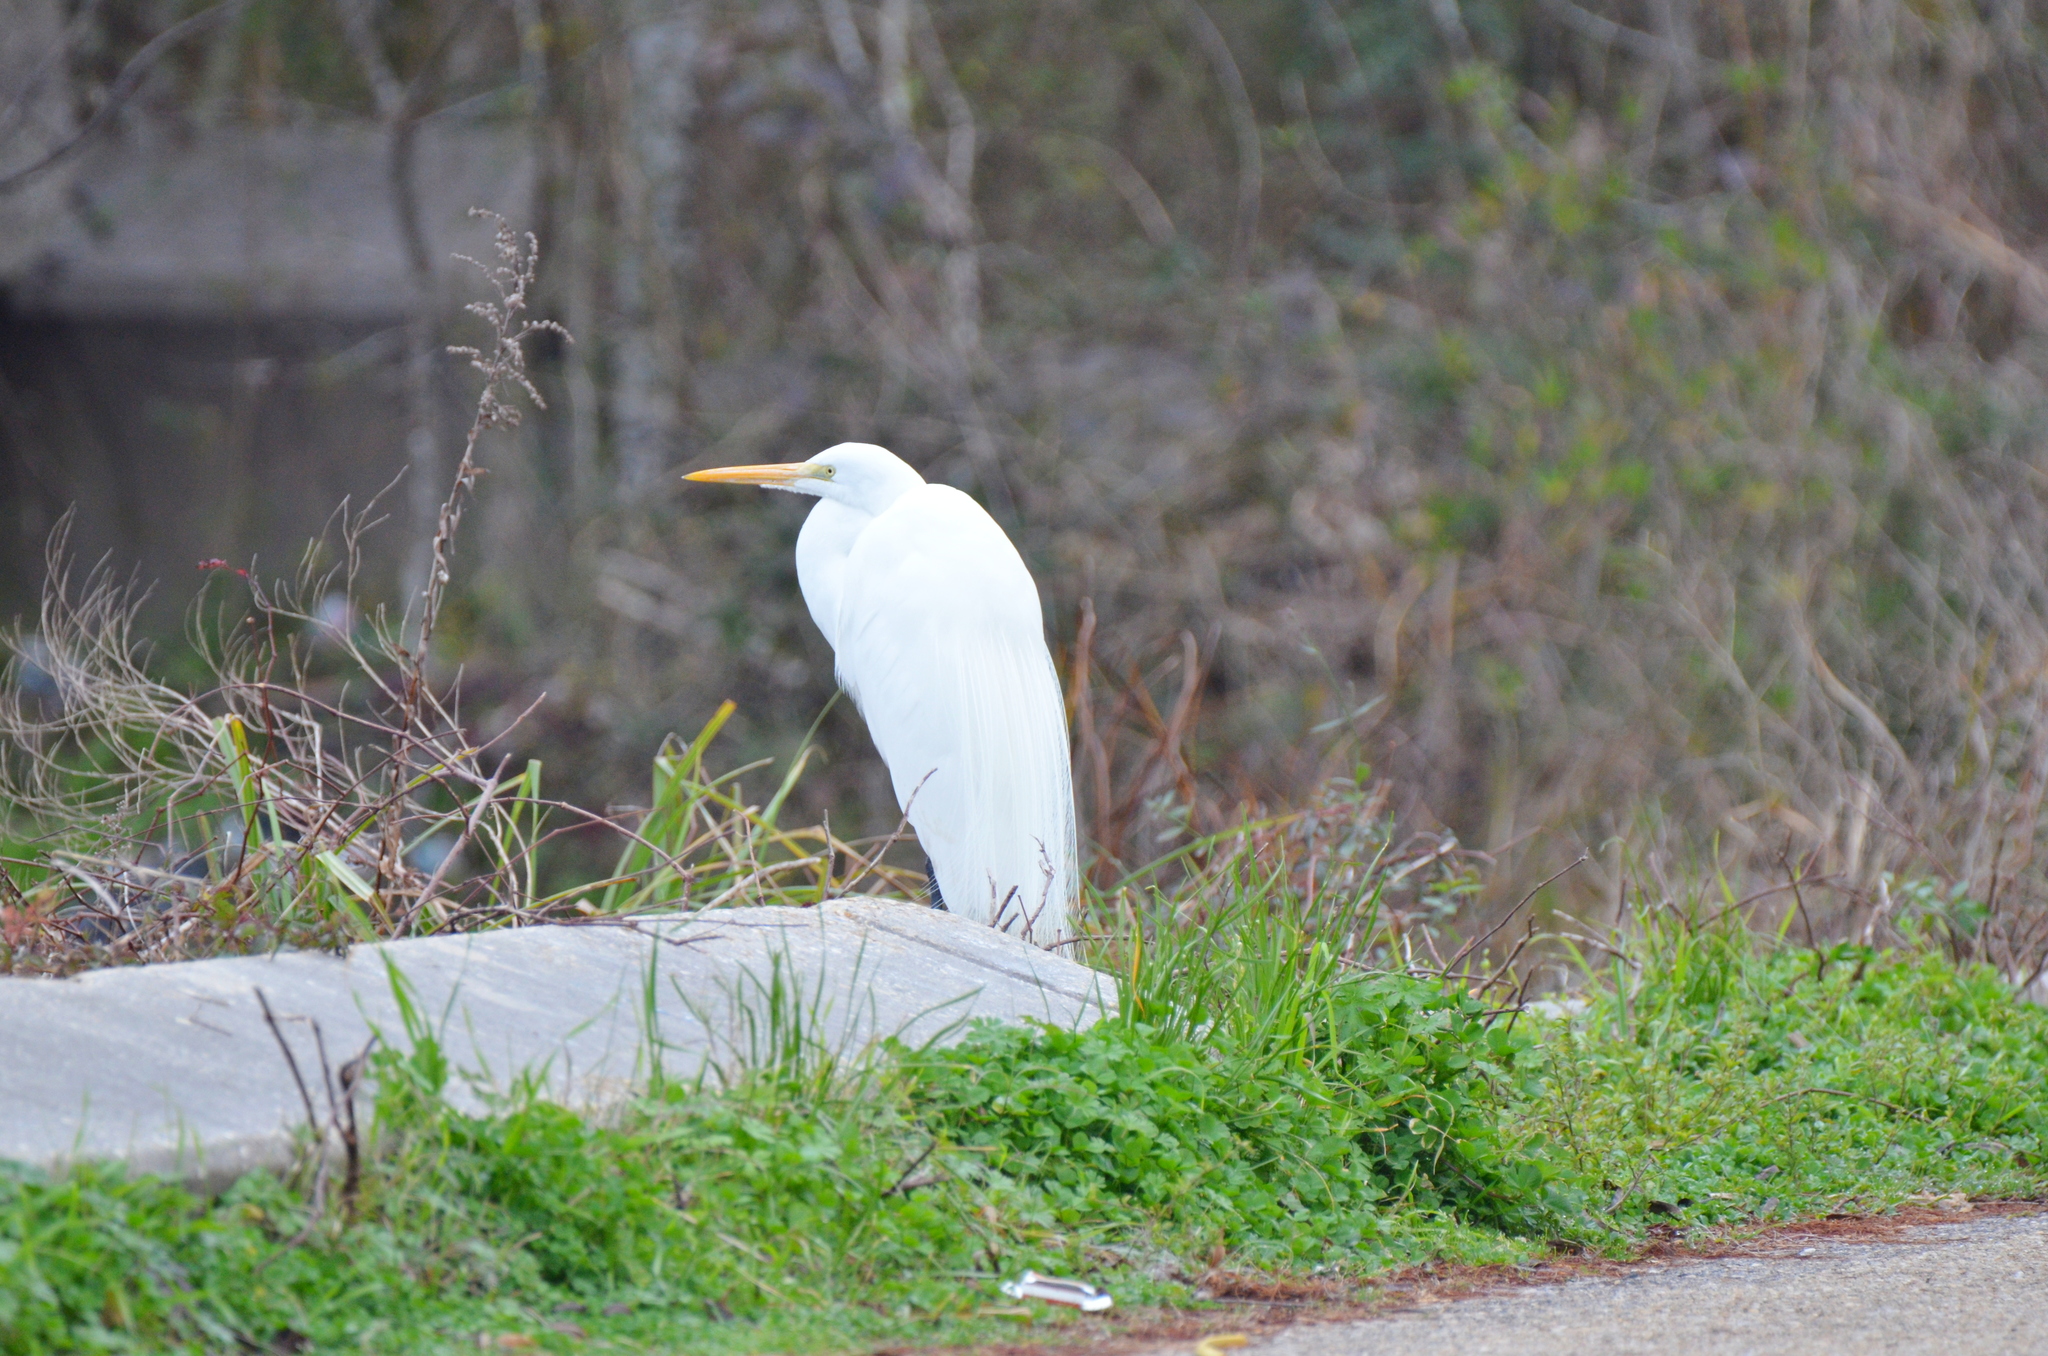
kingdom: Animalia
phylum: Chordata
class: Aves
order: Pelecaniformes
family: Ardeidae
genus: Ardea
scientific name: Ardea alba
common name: Great egret
